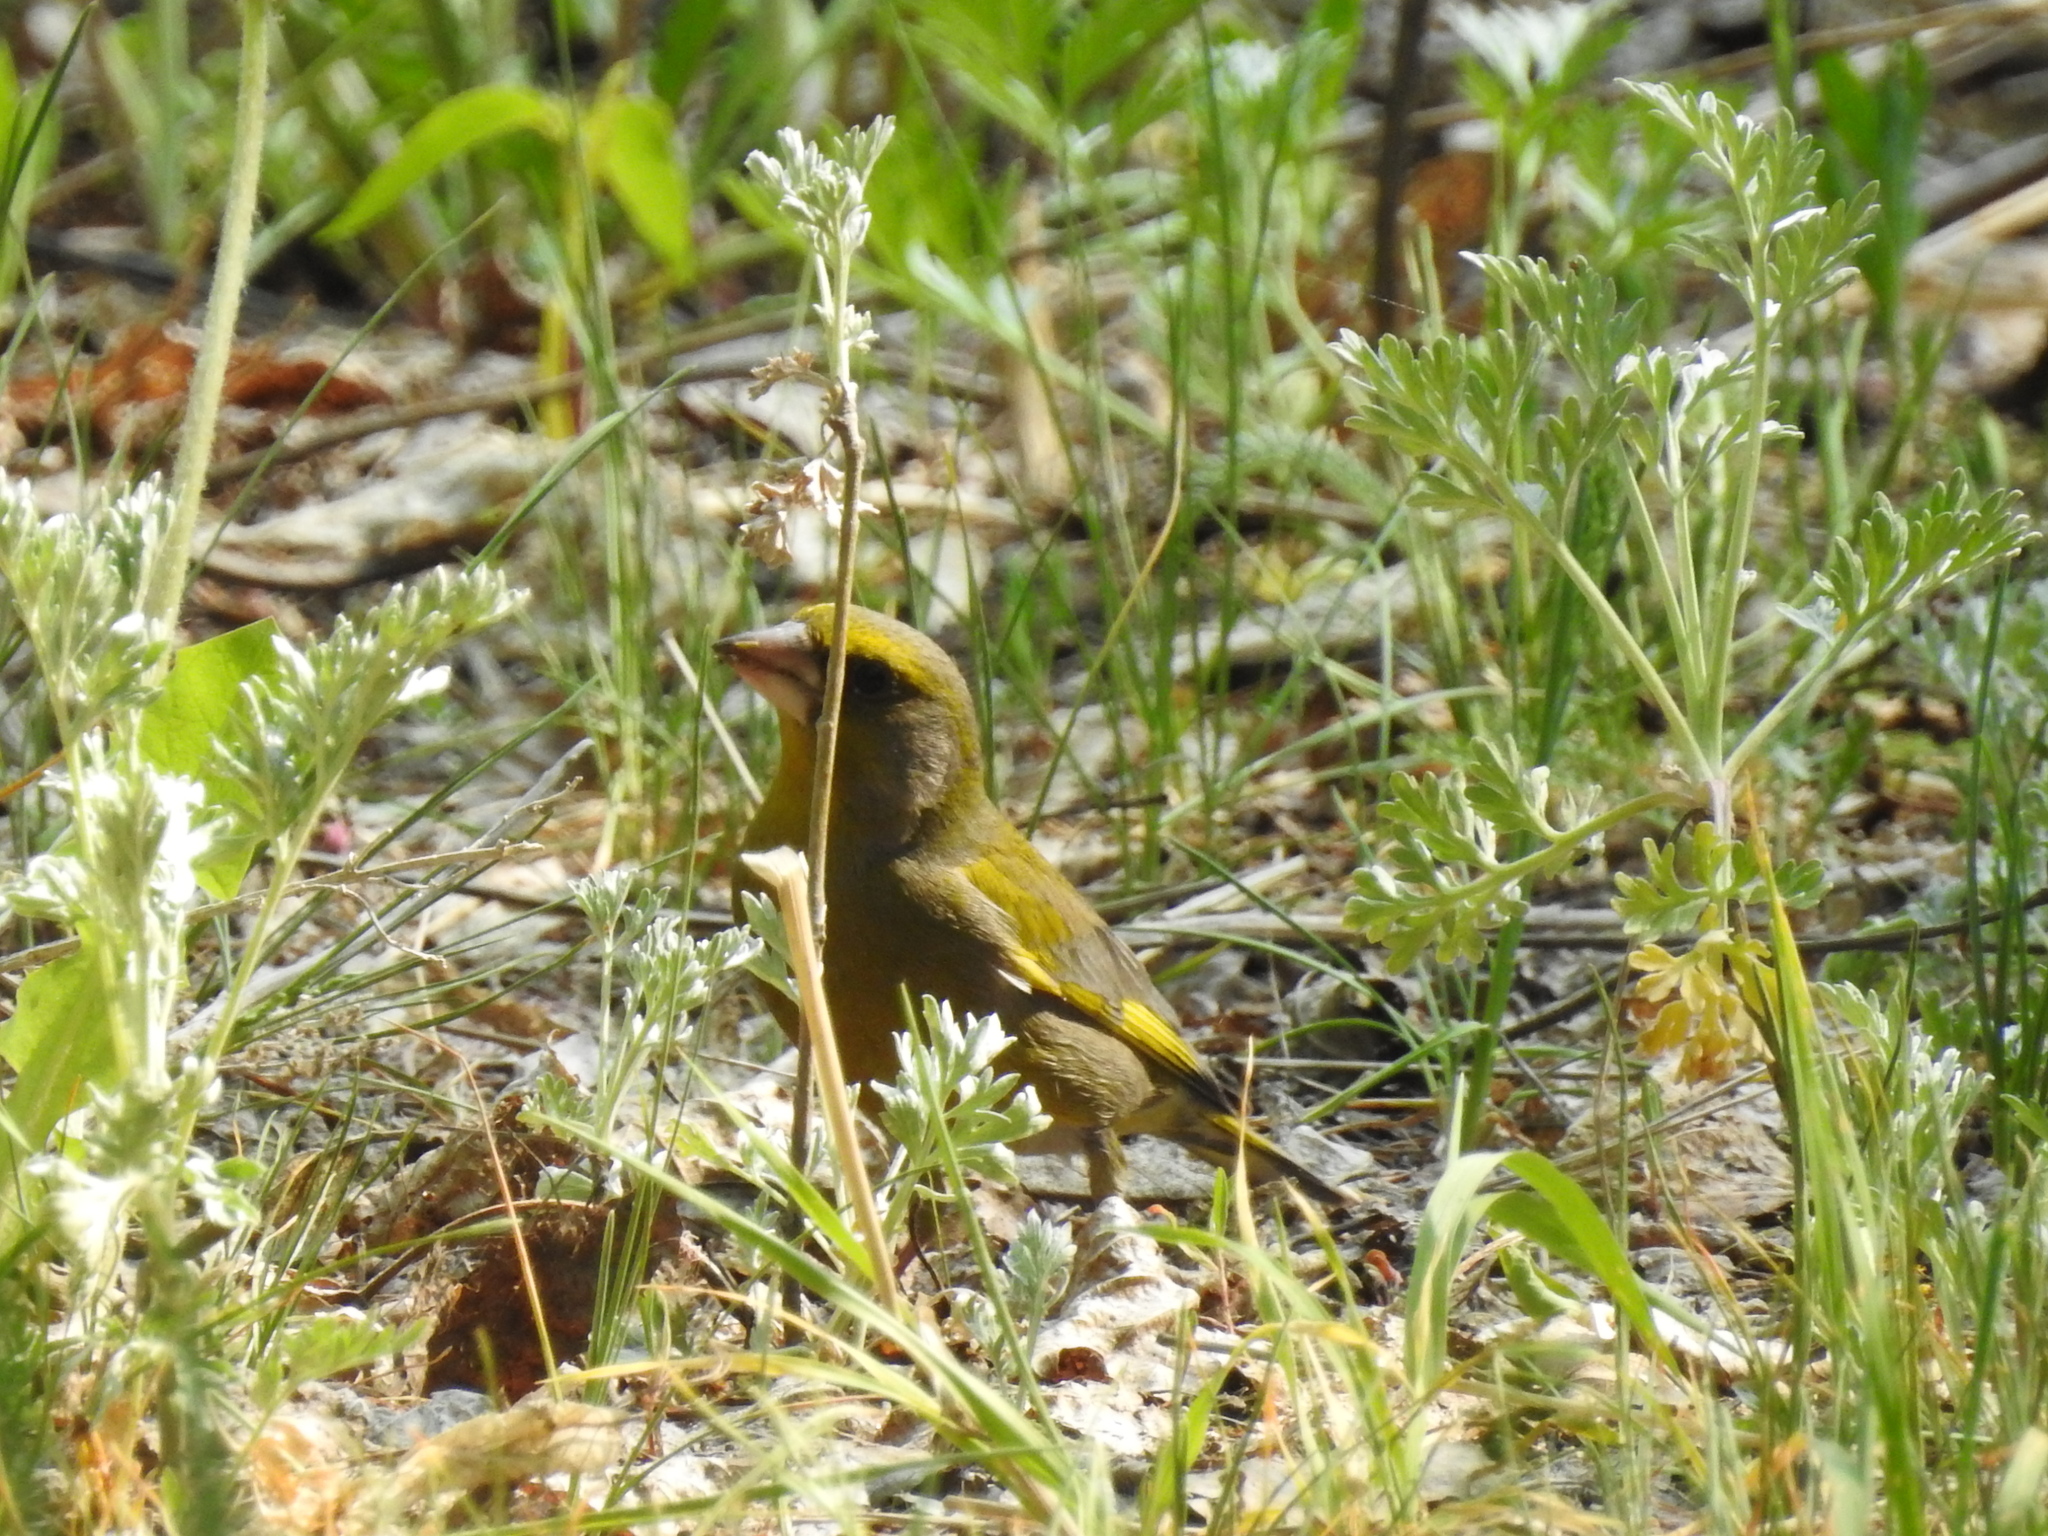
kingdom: Plantae
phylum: Tracheophyta
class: Liliopsida
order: Poales
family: Poaceae
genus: Chloris
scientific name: Chloris chloris
